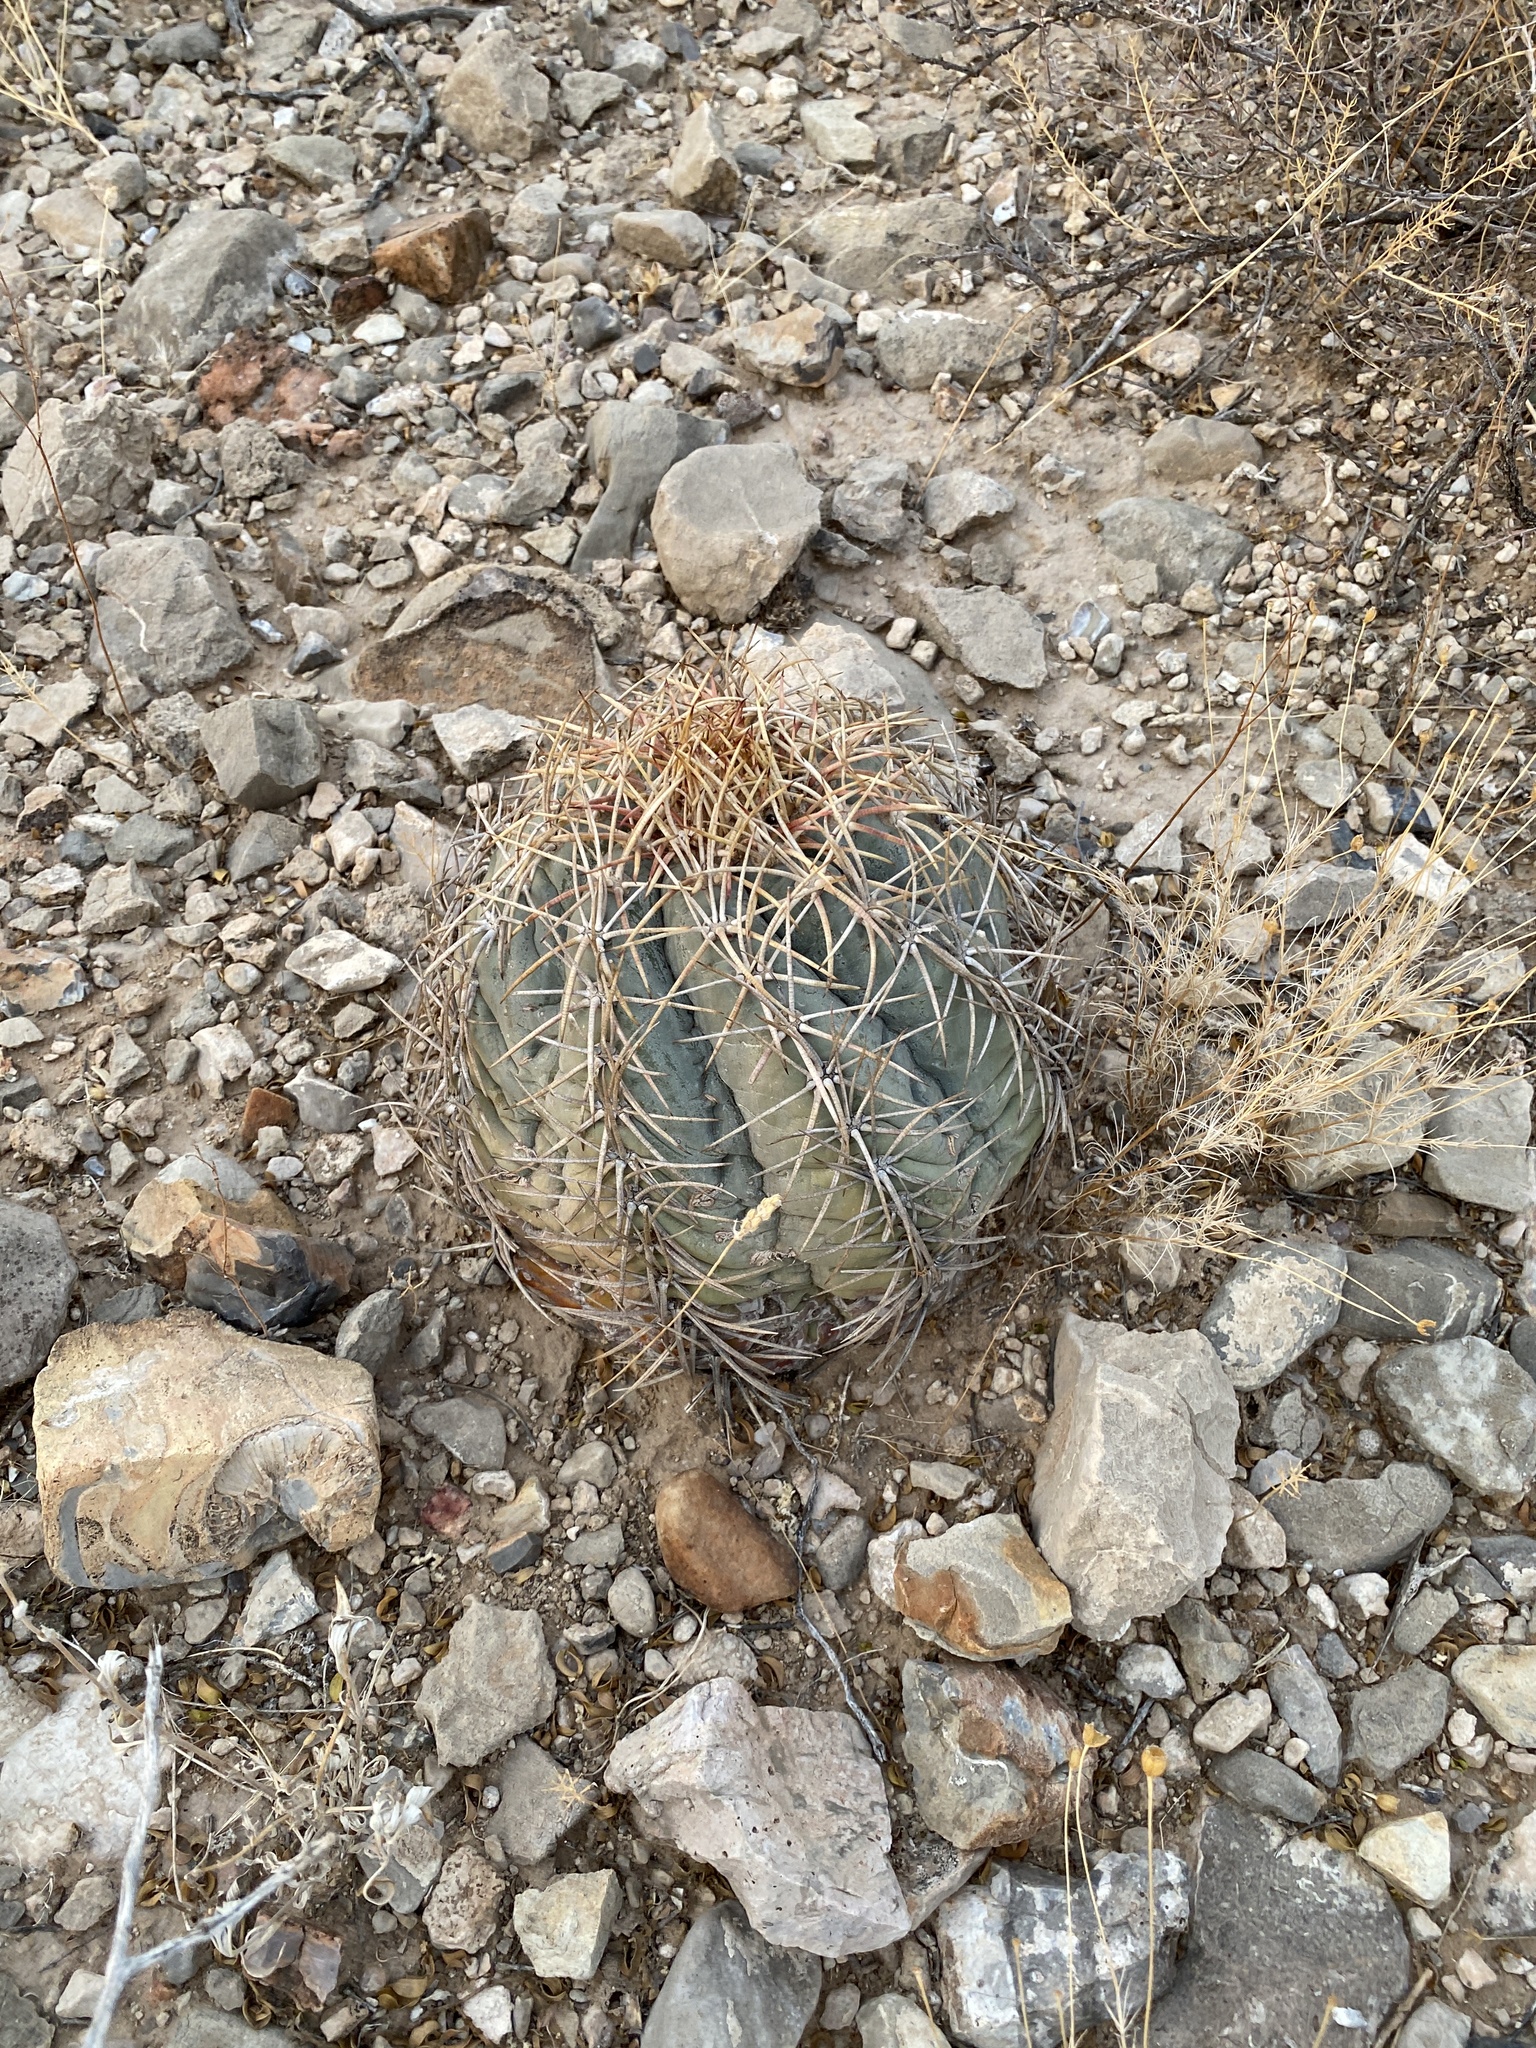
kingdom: Plantae
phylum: Tracheophyta
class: Magnoliopsida
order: Caryophyllales
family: Cactaceae
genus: Echinocactus
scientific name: Echinocactus horizonthalonius
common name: Devilshead
